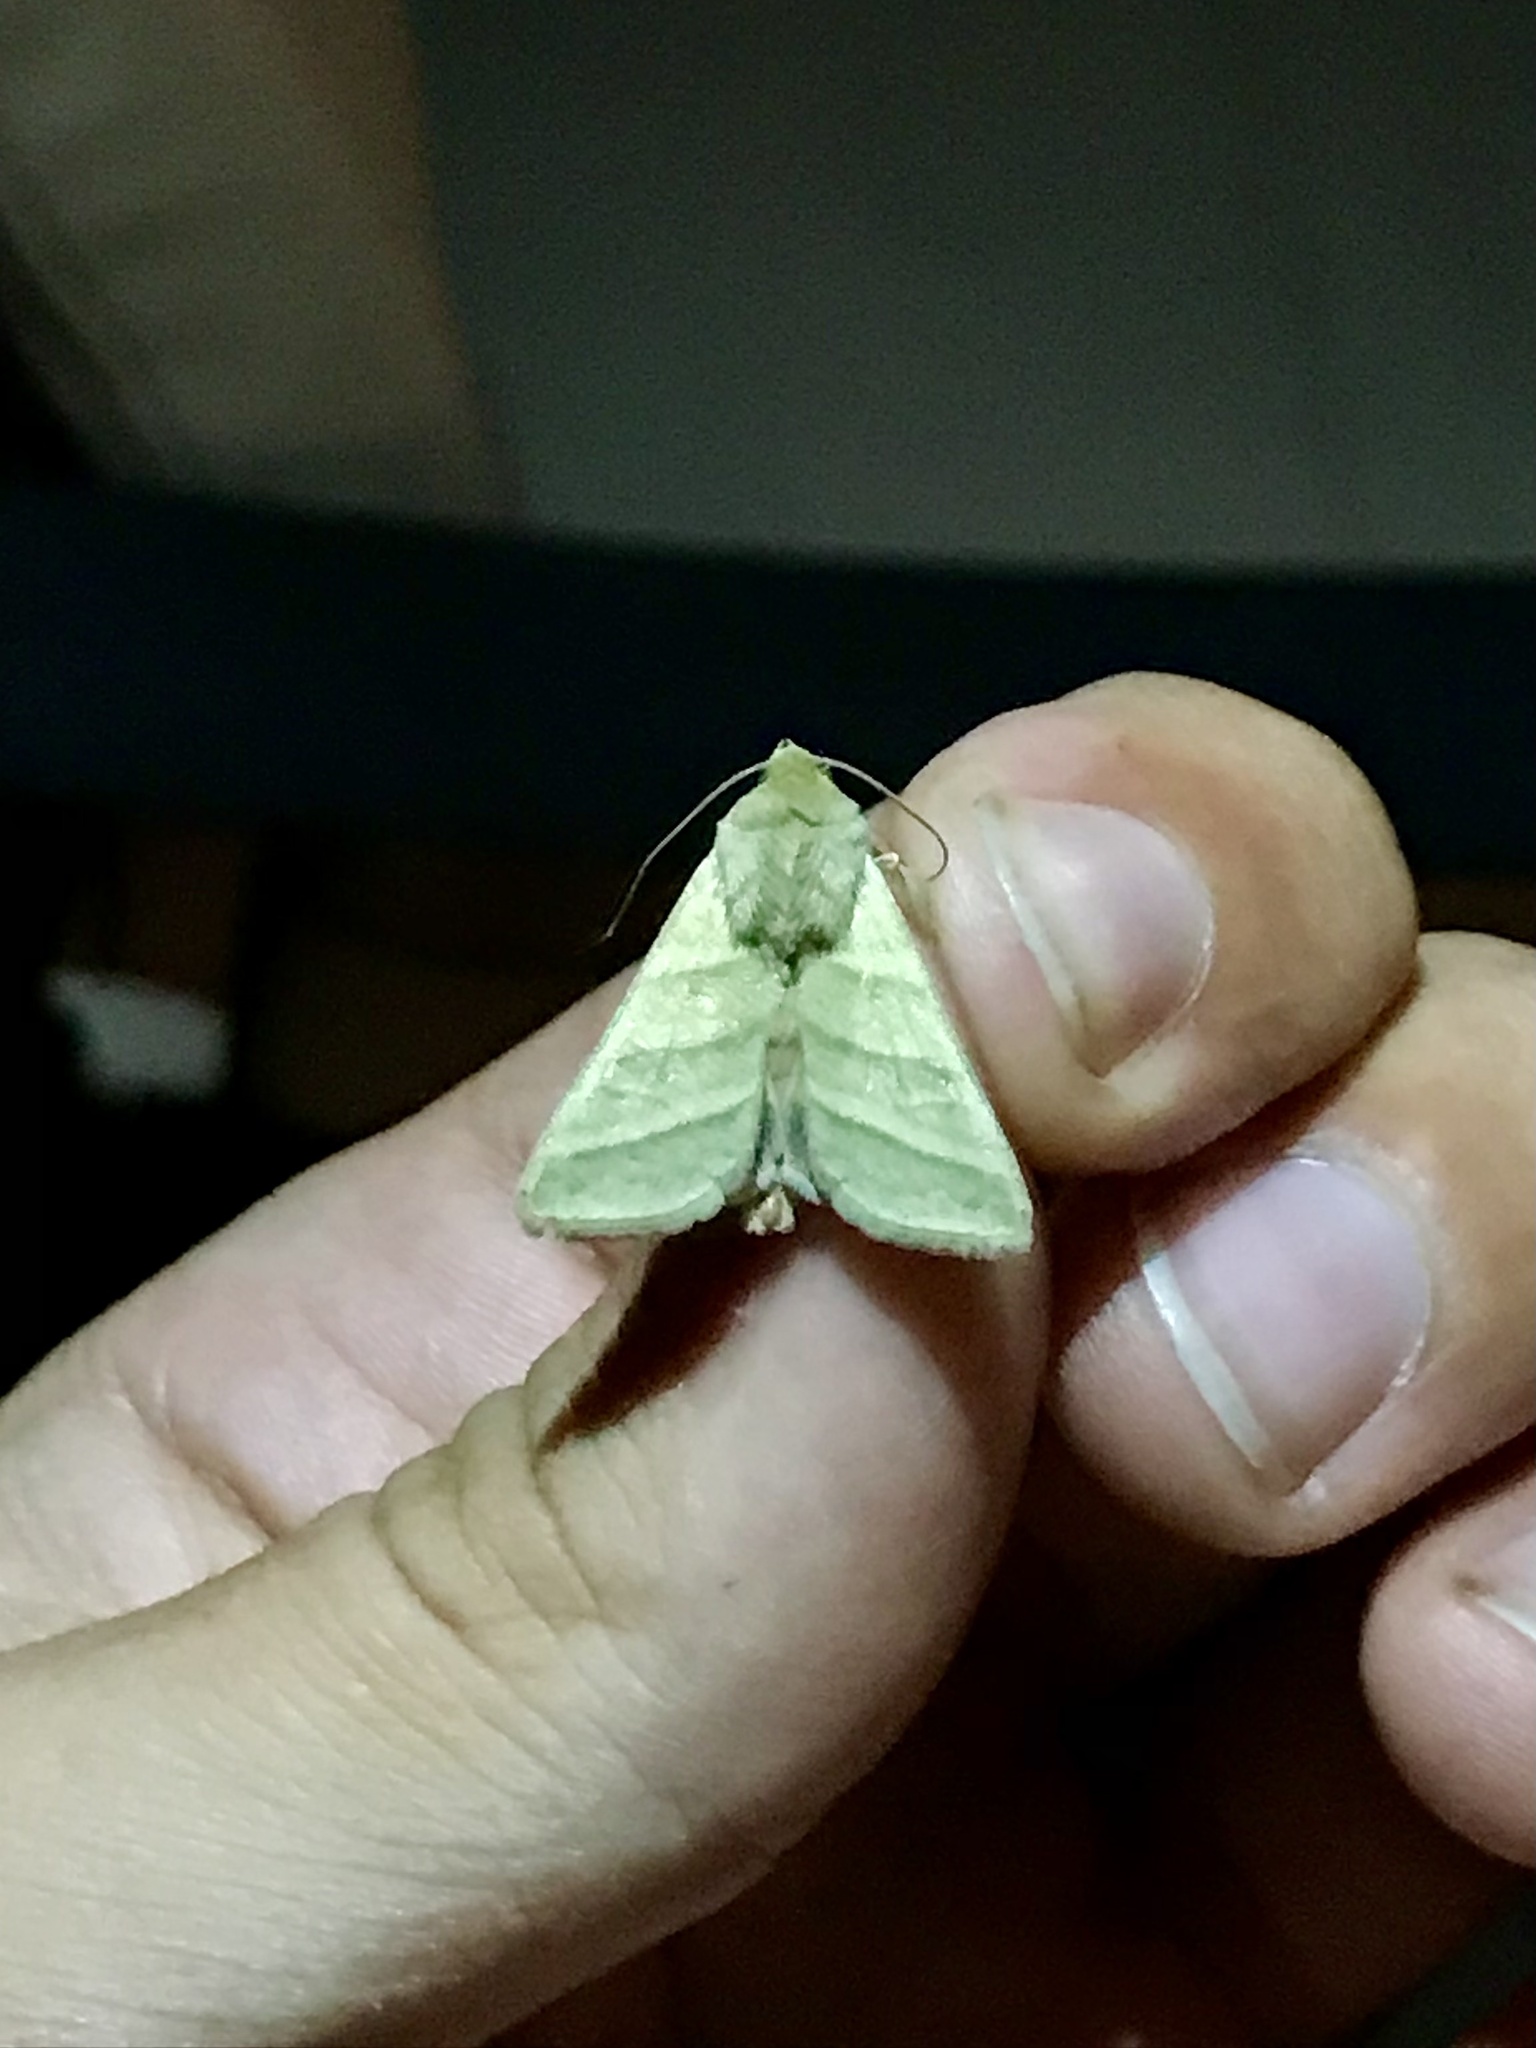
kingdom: Animalia
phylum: Arthropoda
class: Insecta
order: Lepidoptera
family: Noctuidae
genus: Chloridea
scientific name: Chloridea virescens
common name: Tobacco budworm
